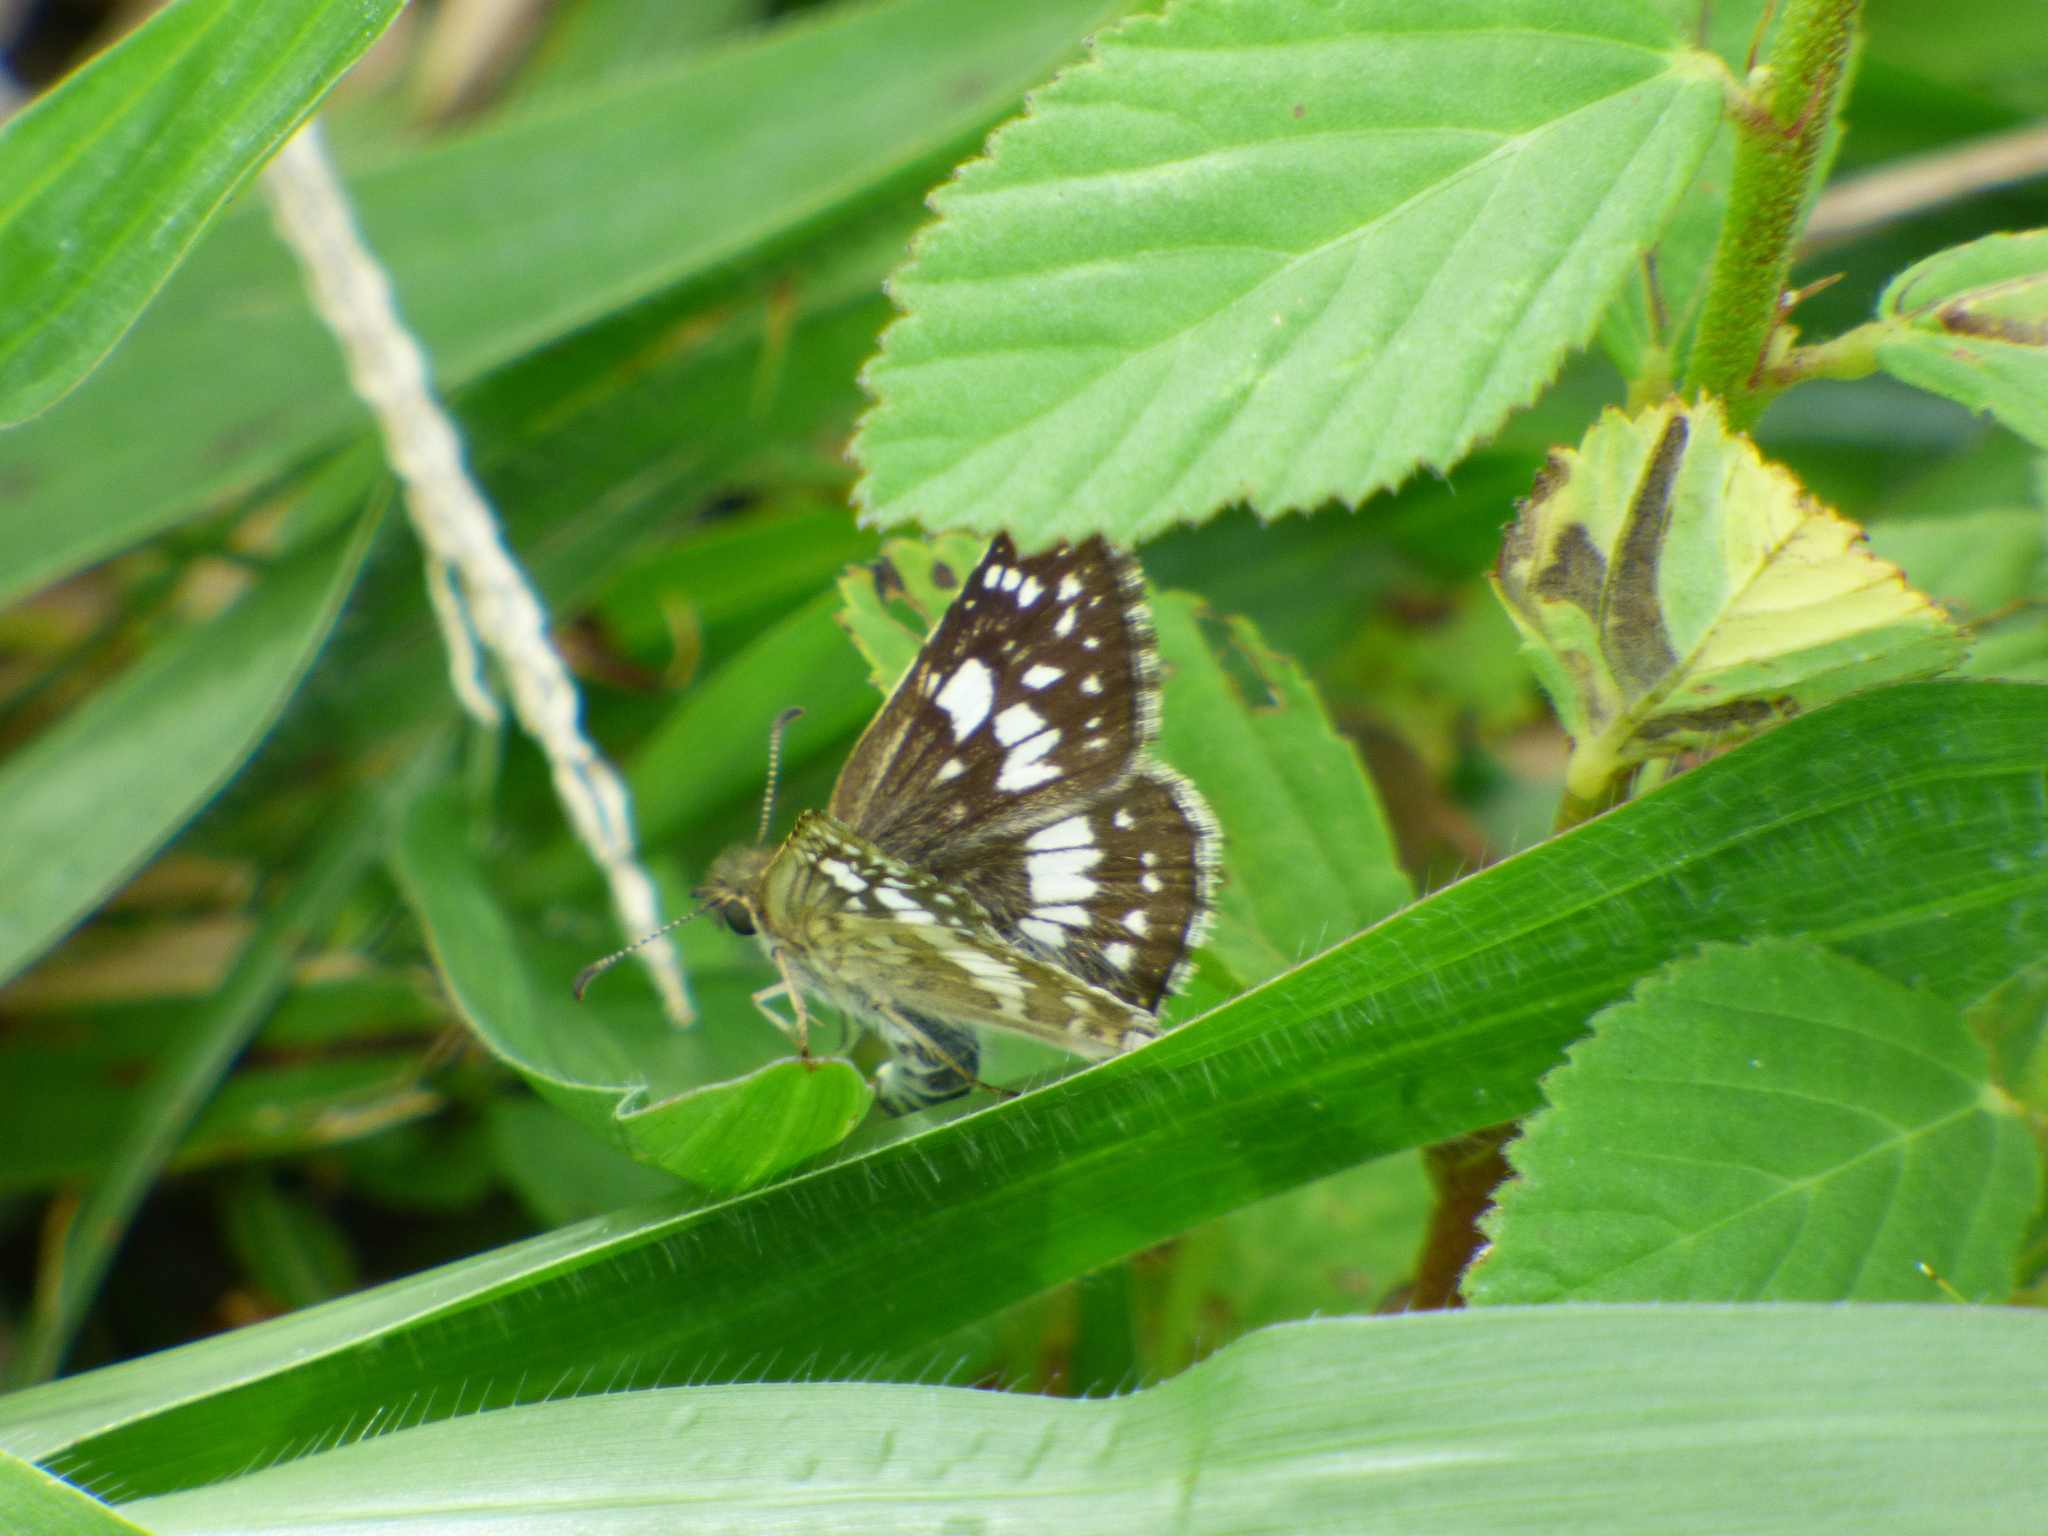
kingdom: Animalia
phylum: Arthropoda
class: Insecta
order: Lepidoptera
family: Hesperiidae
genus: Burnsius
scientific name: Burnsius adepta
